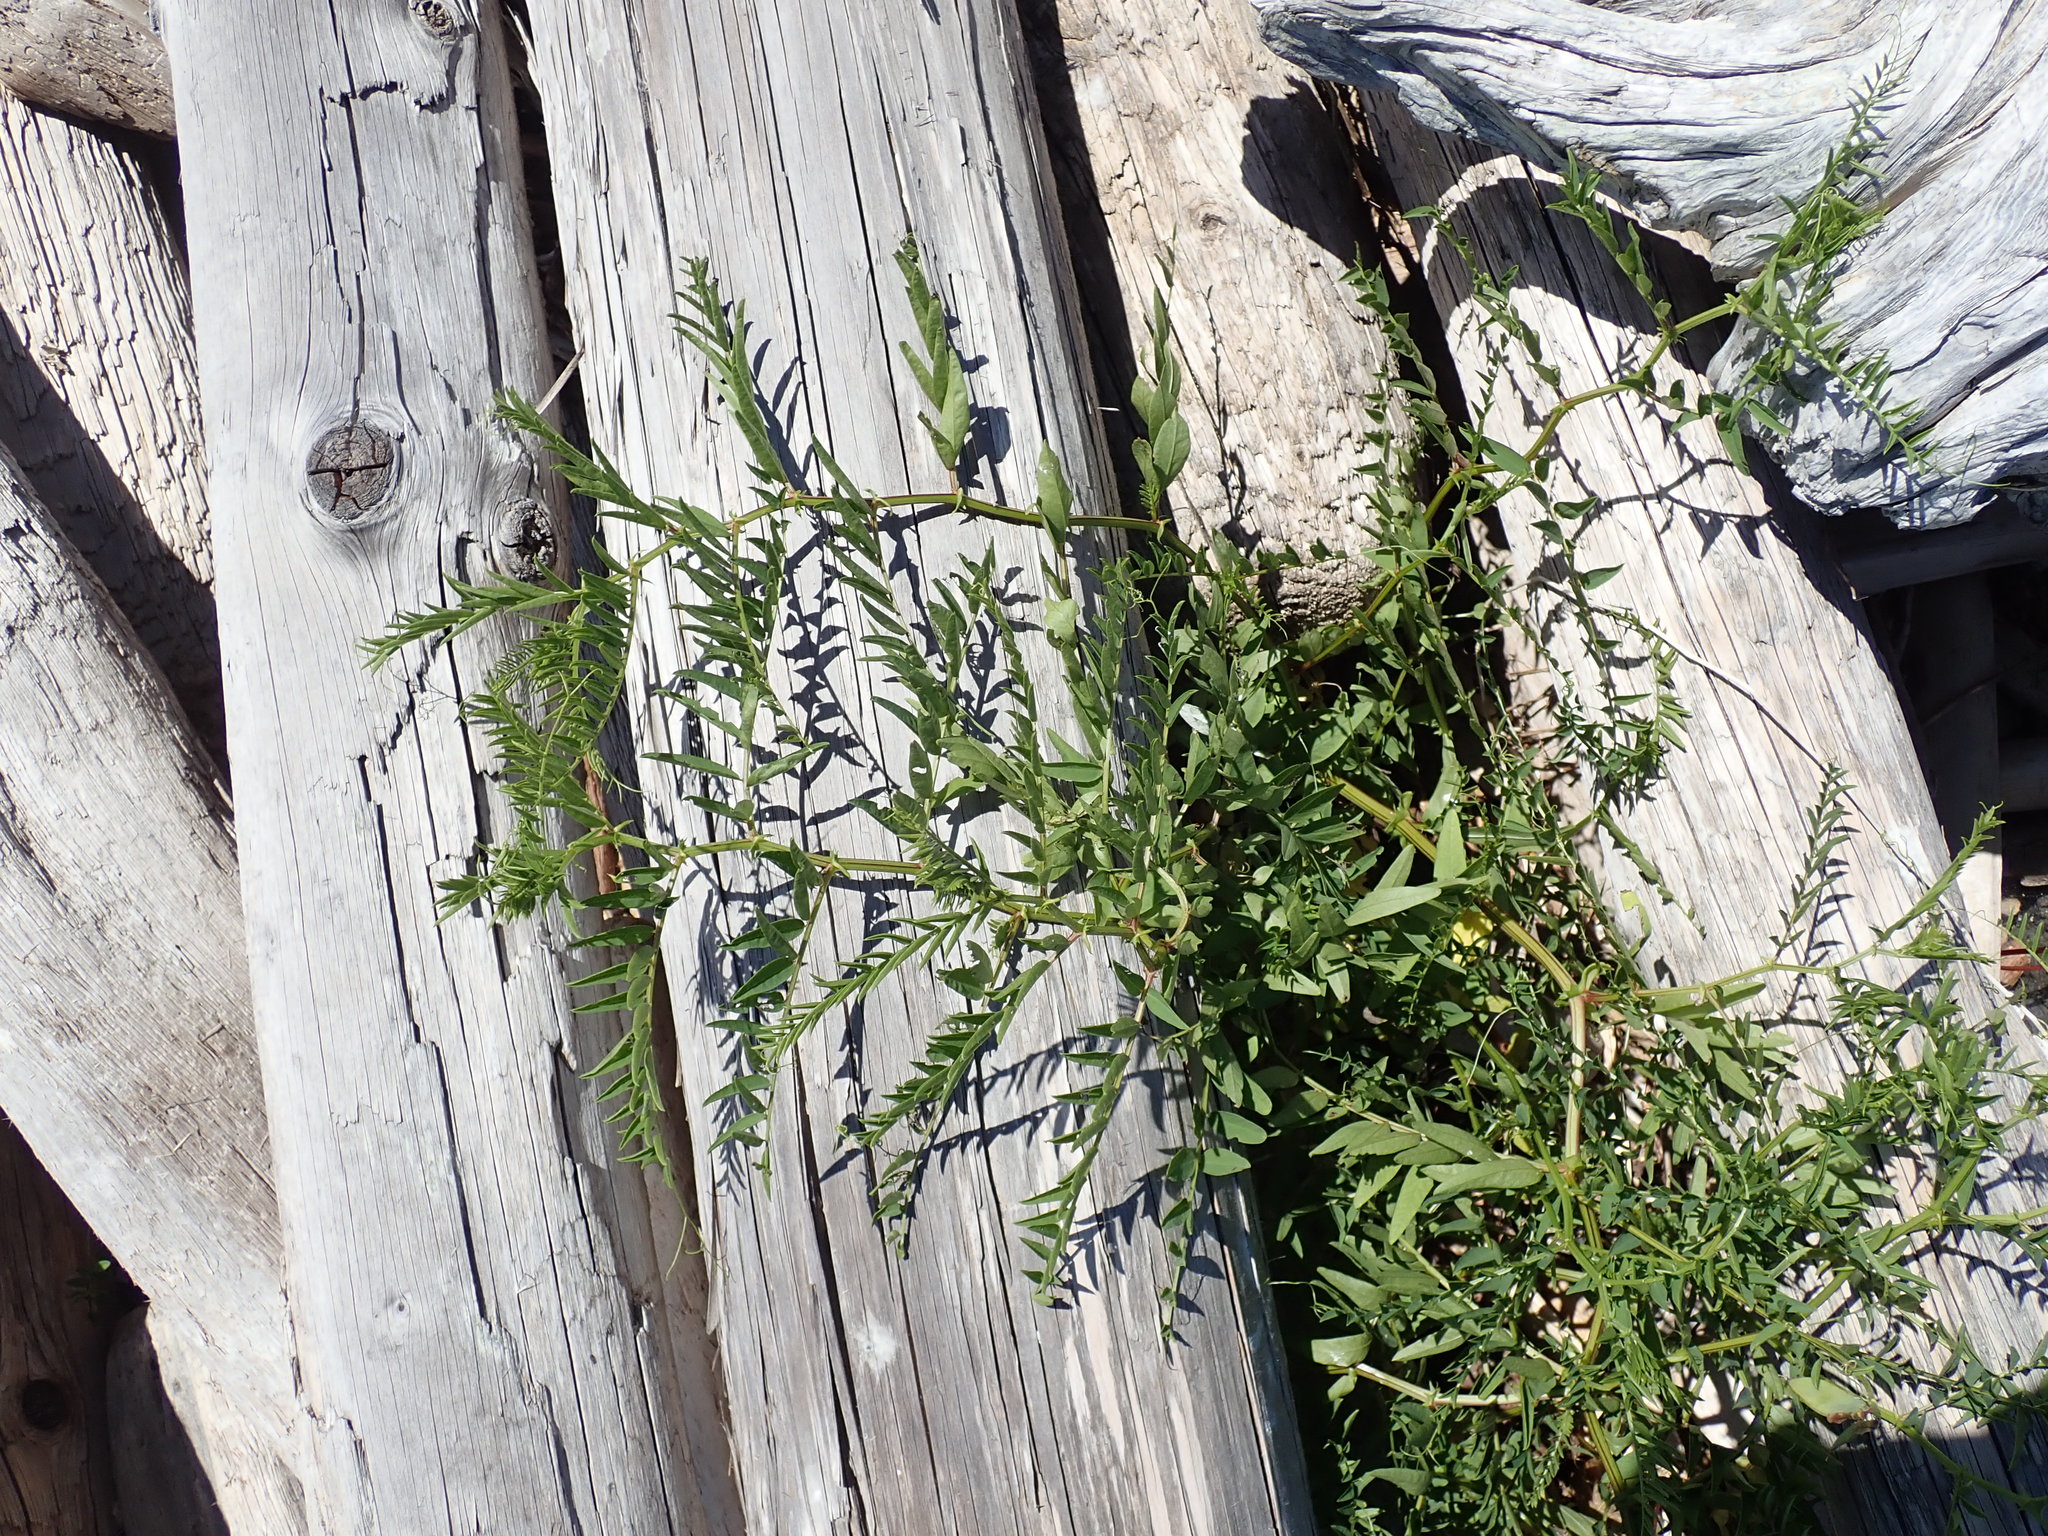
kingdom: Plantae
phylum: Tracheophyta
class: Magnoliopsida
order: Fabales
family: Fabaceae
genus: Vicia
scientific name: Vicia
